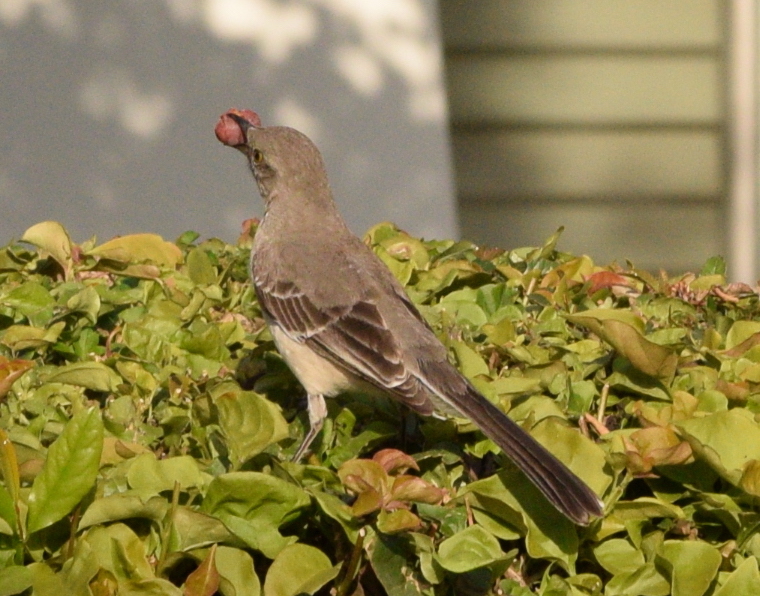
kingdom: Animalia
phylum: Chordata
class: Aves
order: Passeriformes
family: Mimidae
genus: Mimus
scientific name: Mimus polyglottos
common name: Northern mockingbird
